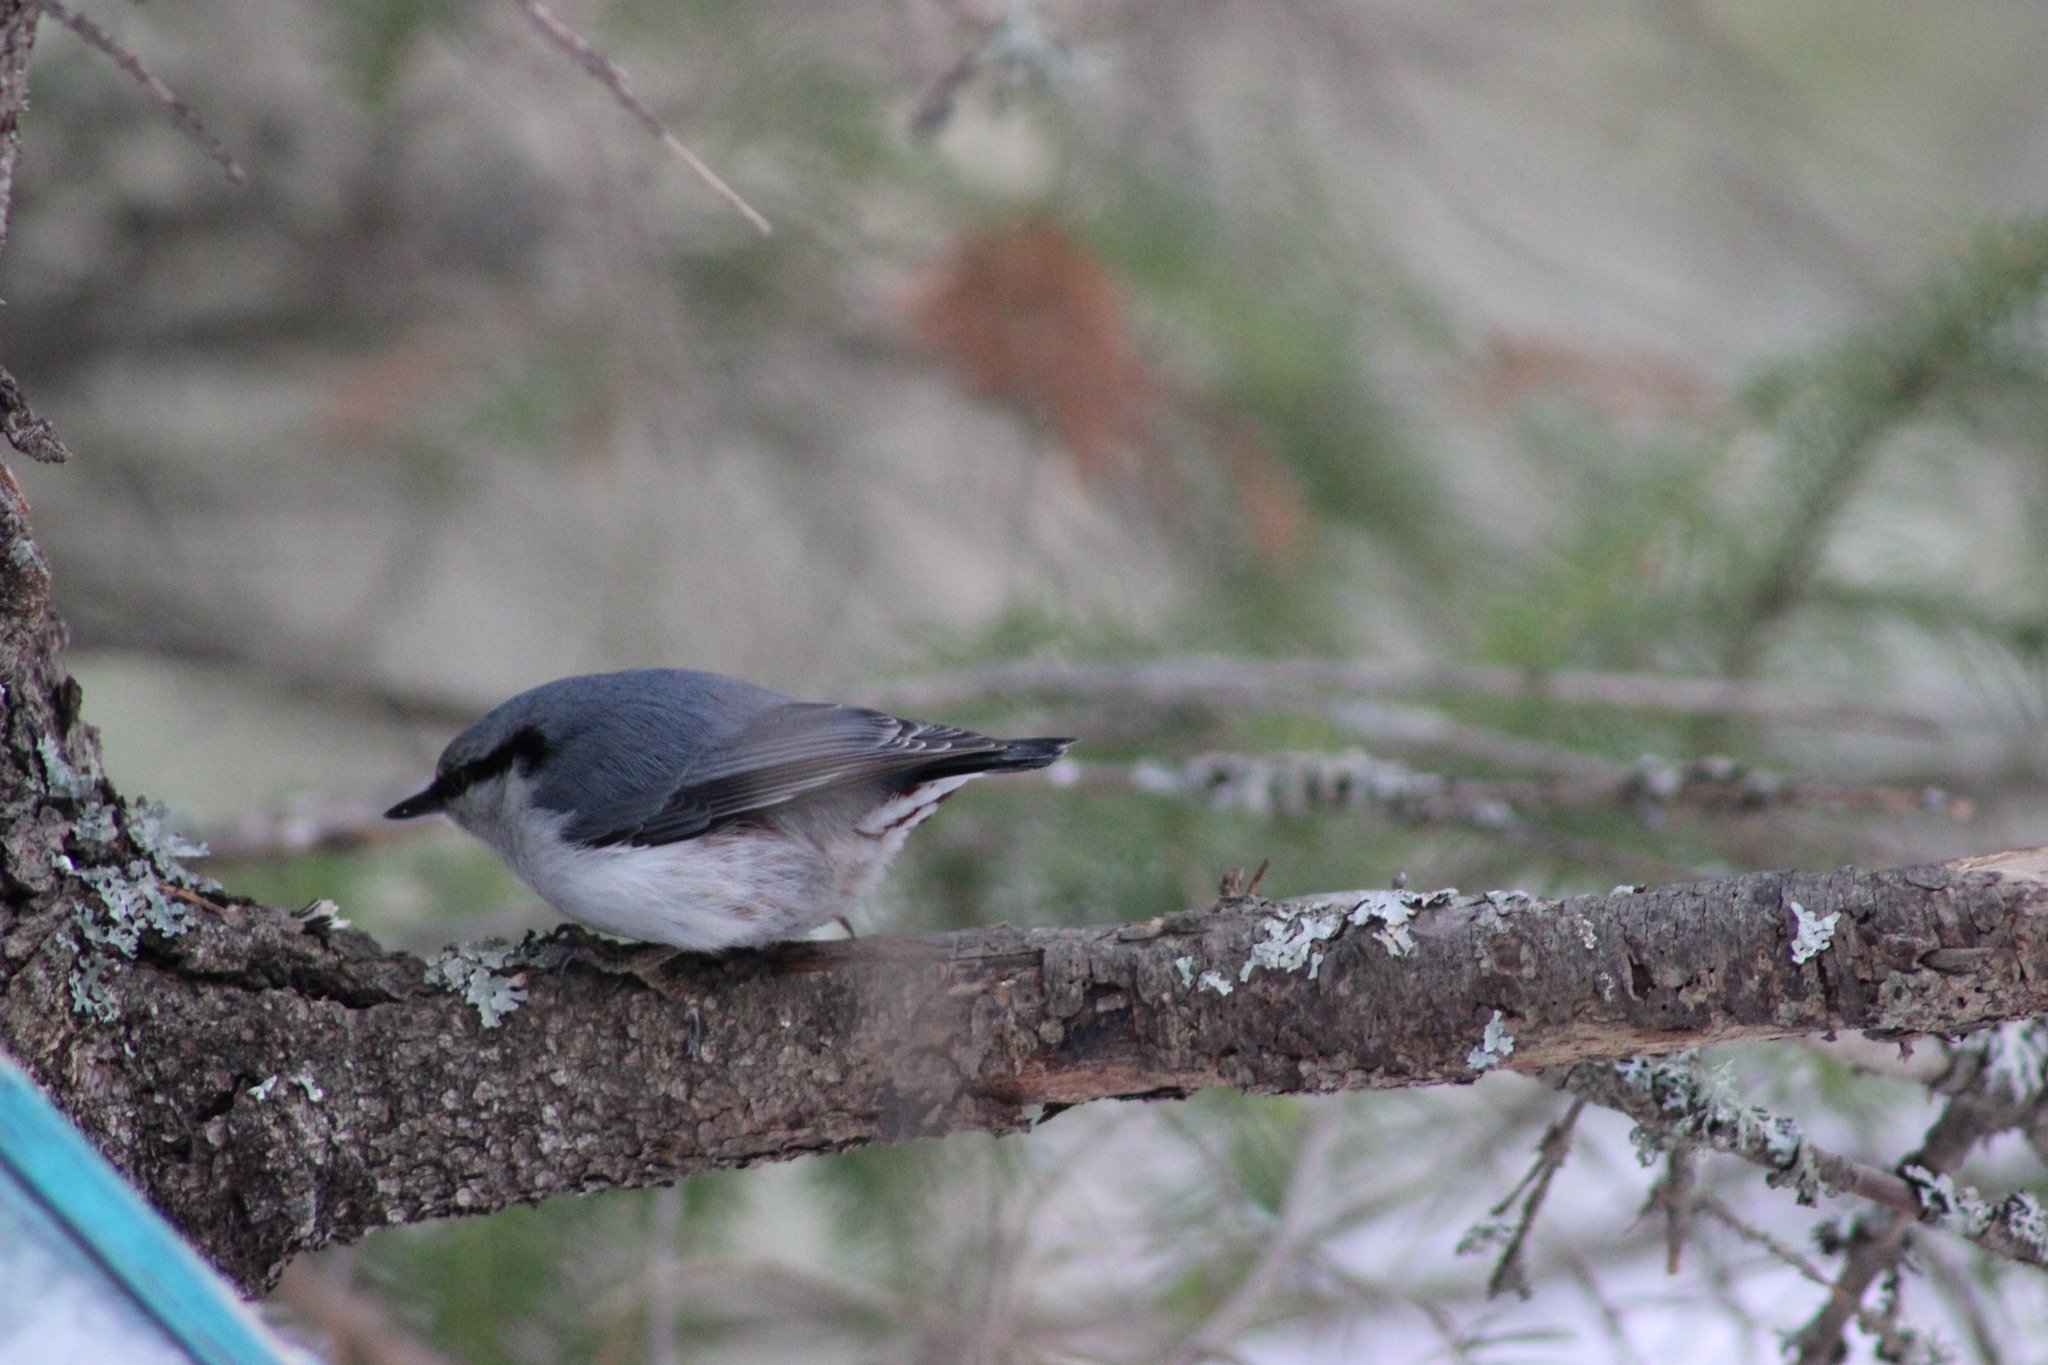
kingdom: Animalia
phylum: Chordata
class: Aves
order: Passeriformes
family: Sittidae
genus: Sitta
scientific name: Sitta europaea
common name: Eurasian nuthatch
